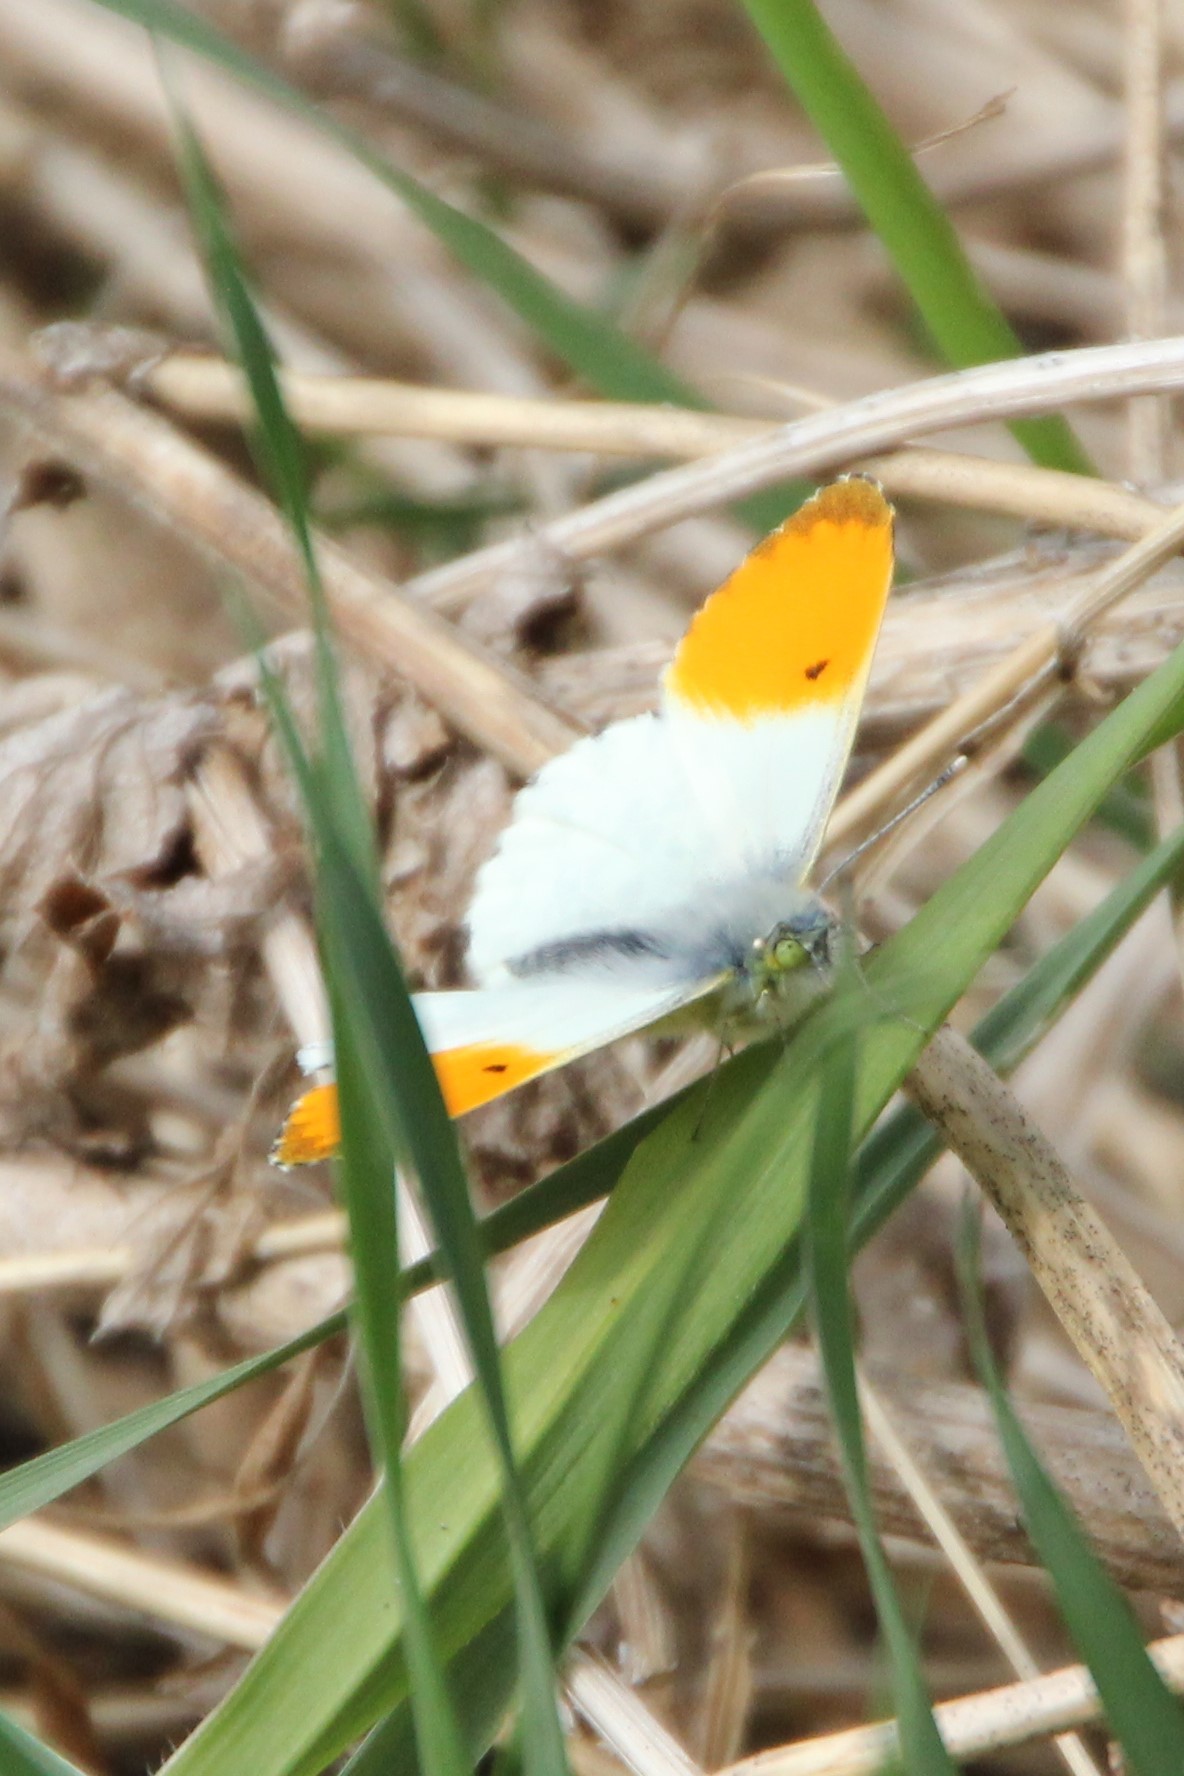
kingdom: Animalia
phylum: Arthropoda
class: Insecta
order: Lepidoptera
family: Pieridae
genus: Anthocharis
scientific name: Anthocharis cardamines
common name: Orange-tip
